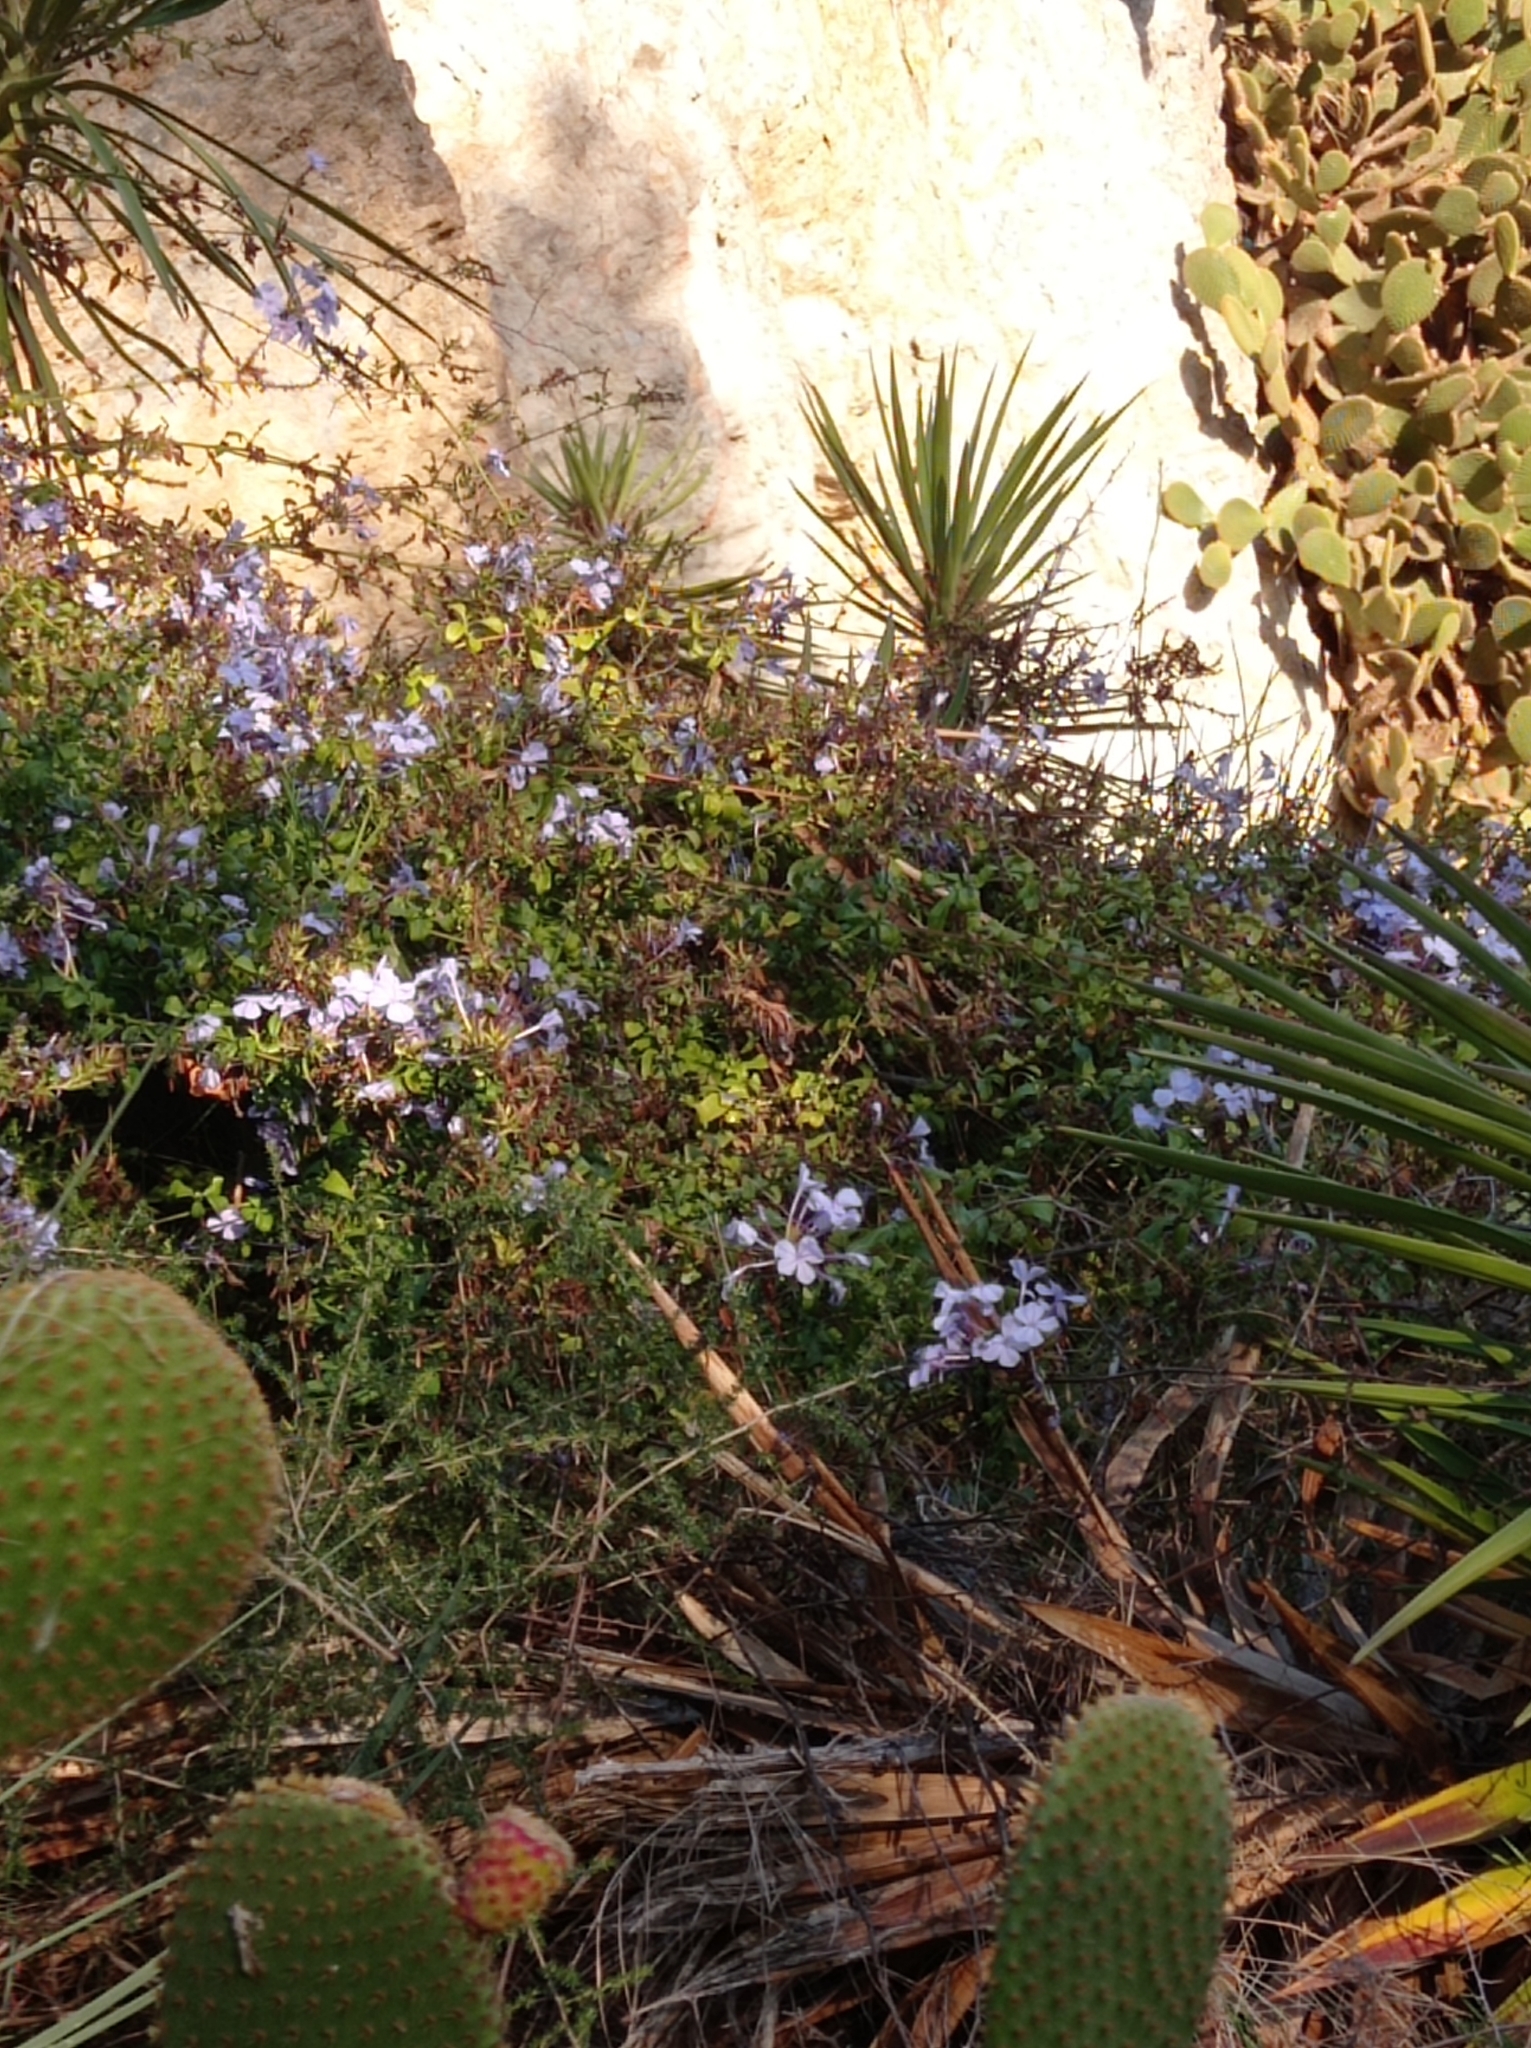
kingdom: Plantae
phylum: Tracheophyta
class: Magnoliopsida
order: Caryophyllales
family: Plumbaginaceae
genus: Plumbago
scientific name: Plumbago auriculata
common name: Cape leadwort
